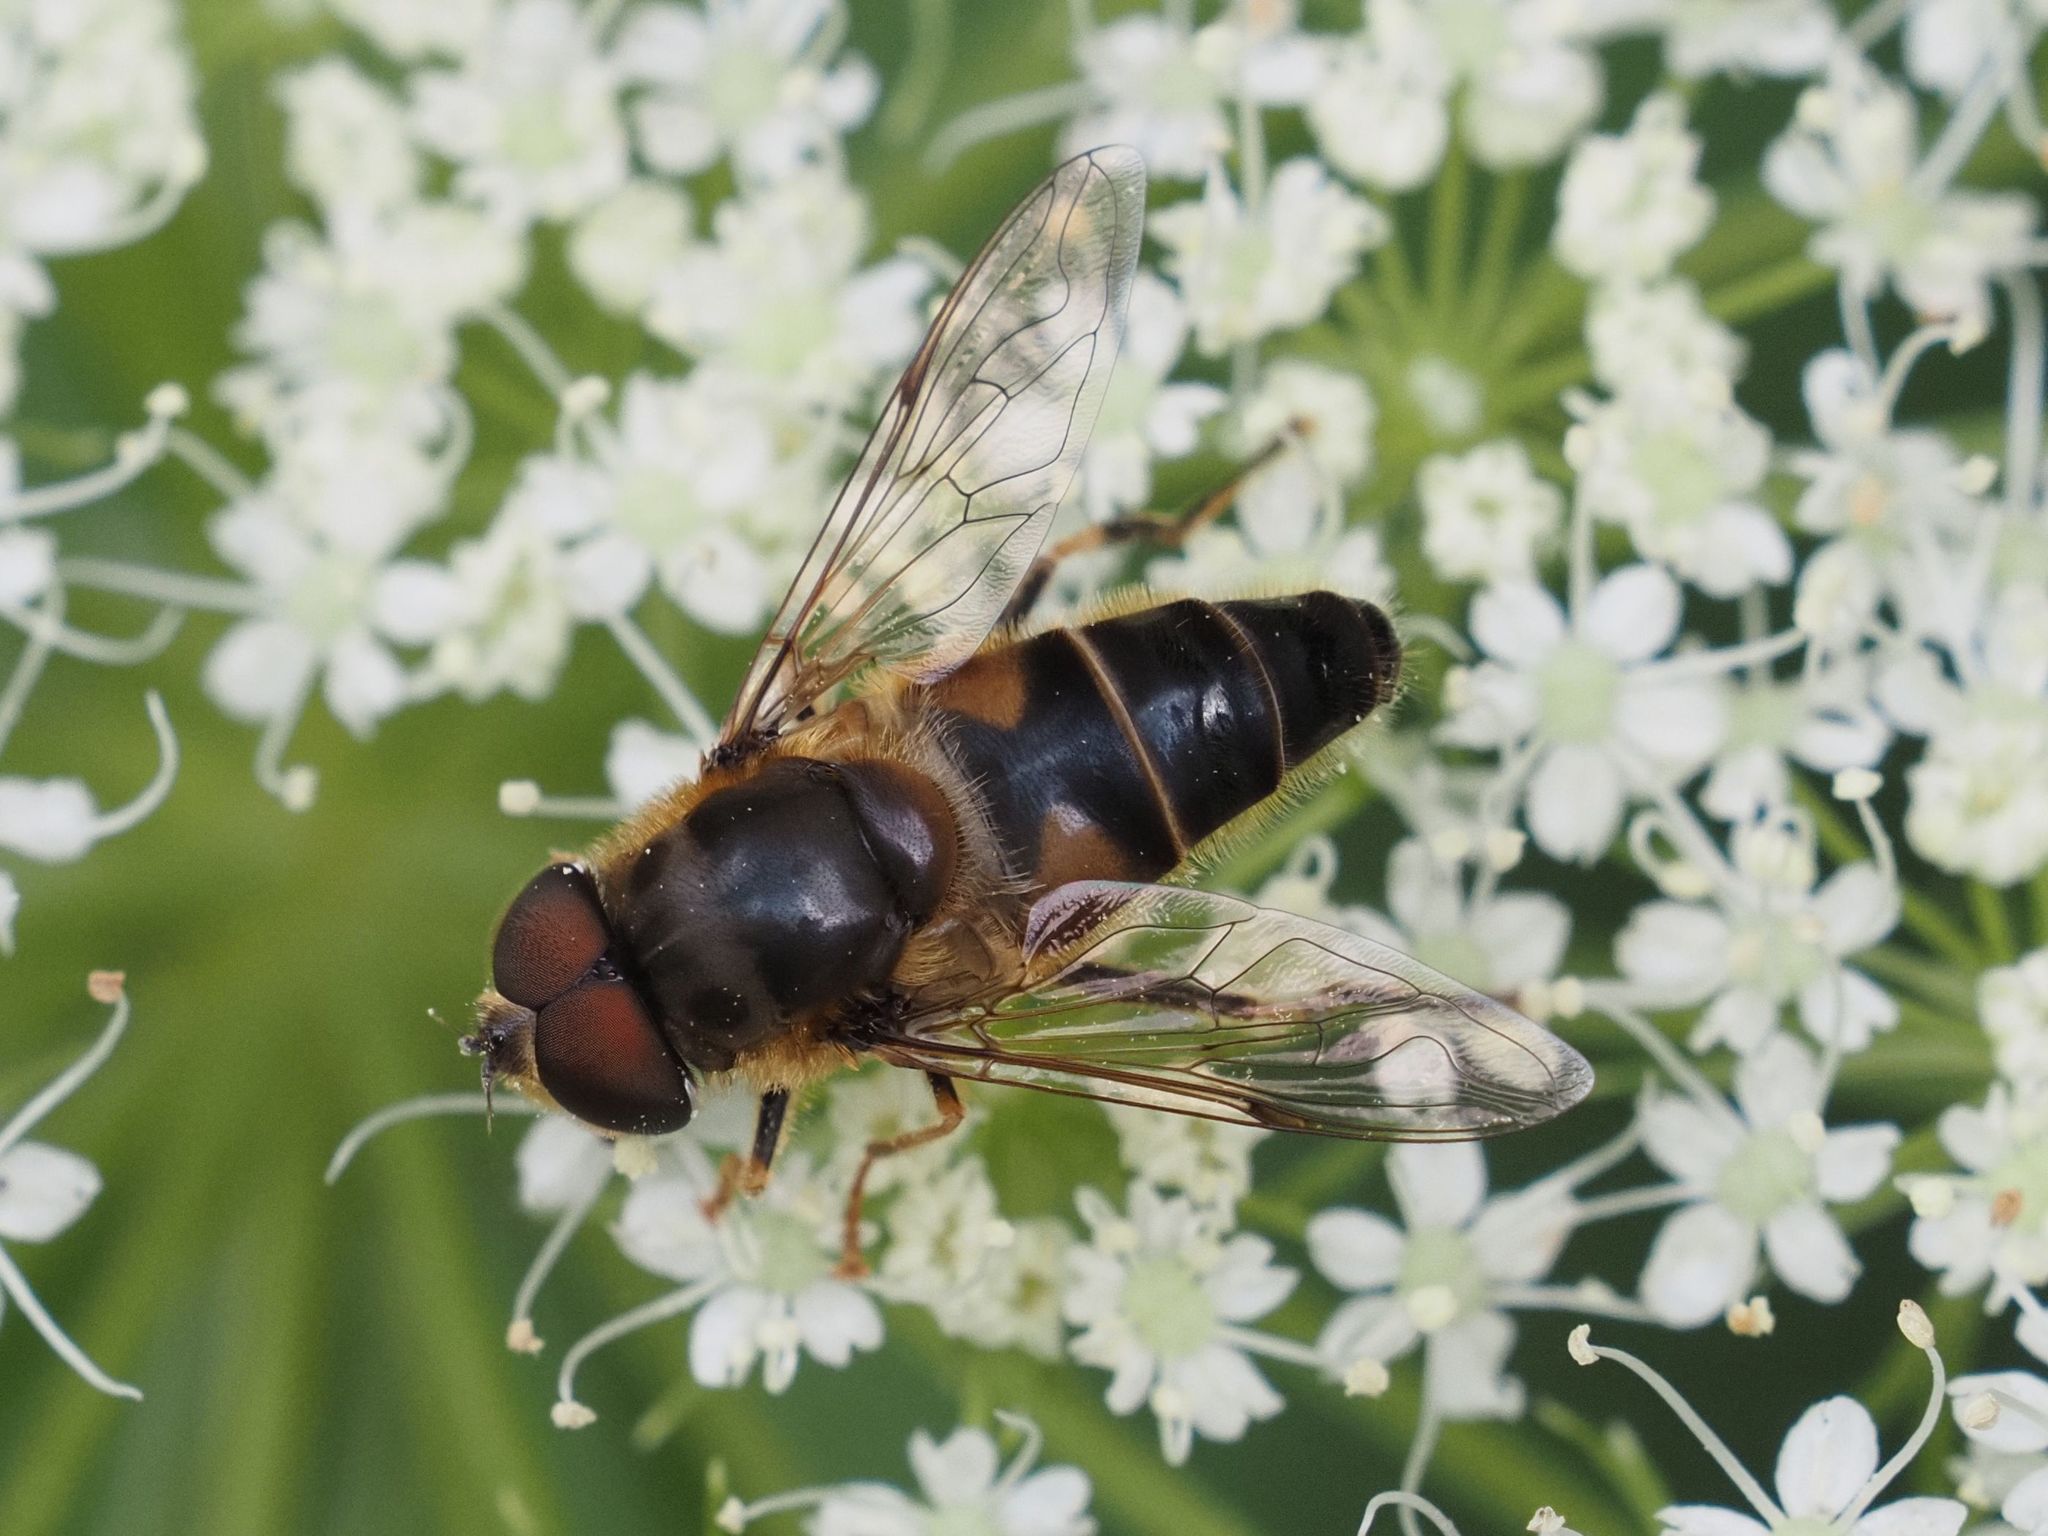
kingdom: Animalia
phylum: Arthropoda
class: Insecta
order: Diptera
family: Syrphidae
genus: Eristalis
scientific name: Eristalis pertinax
